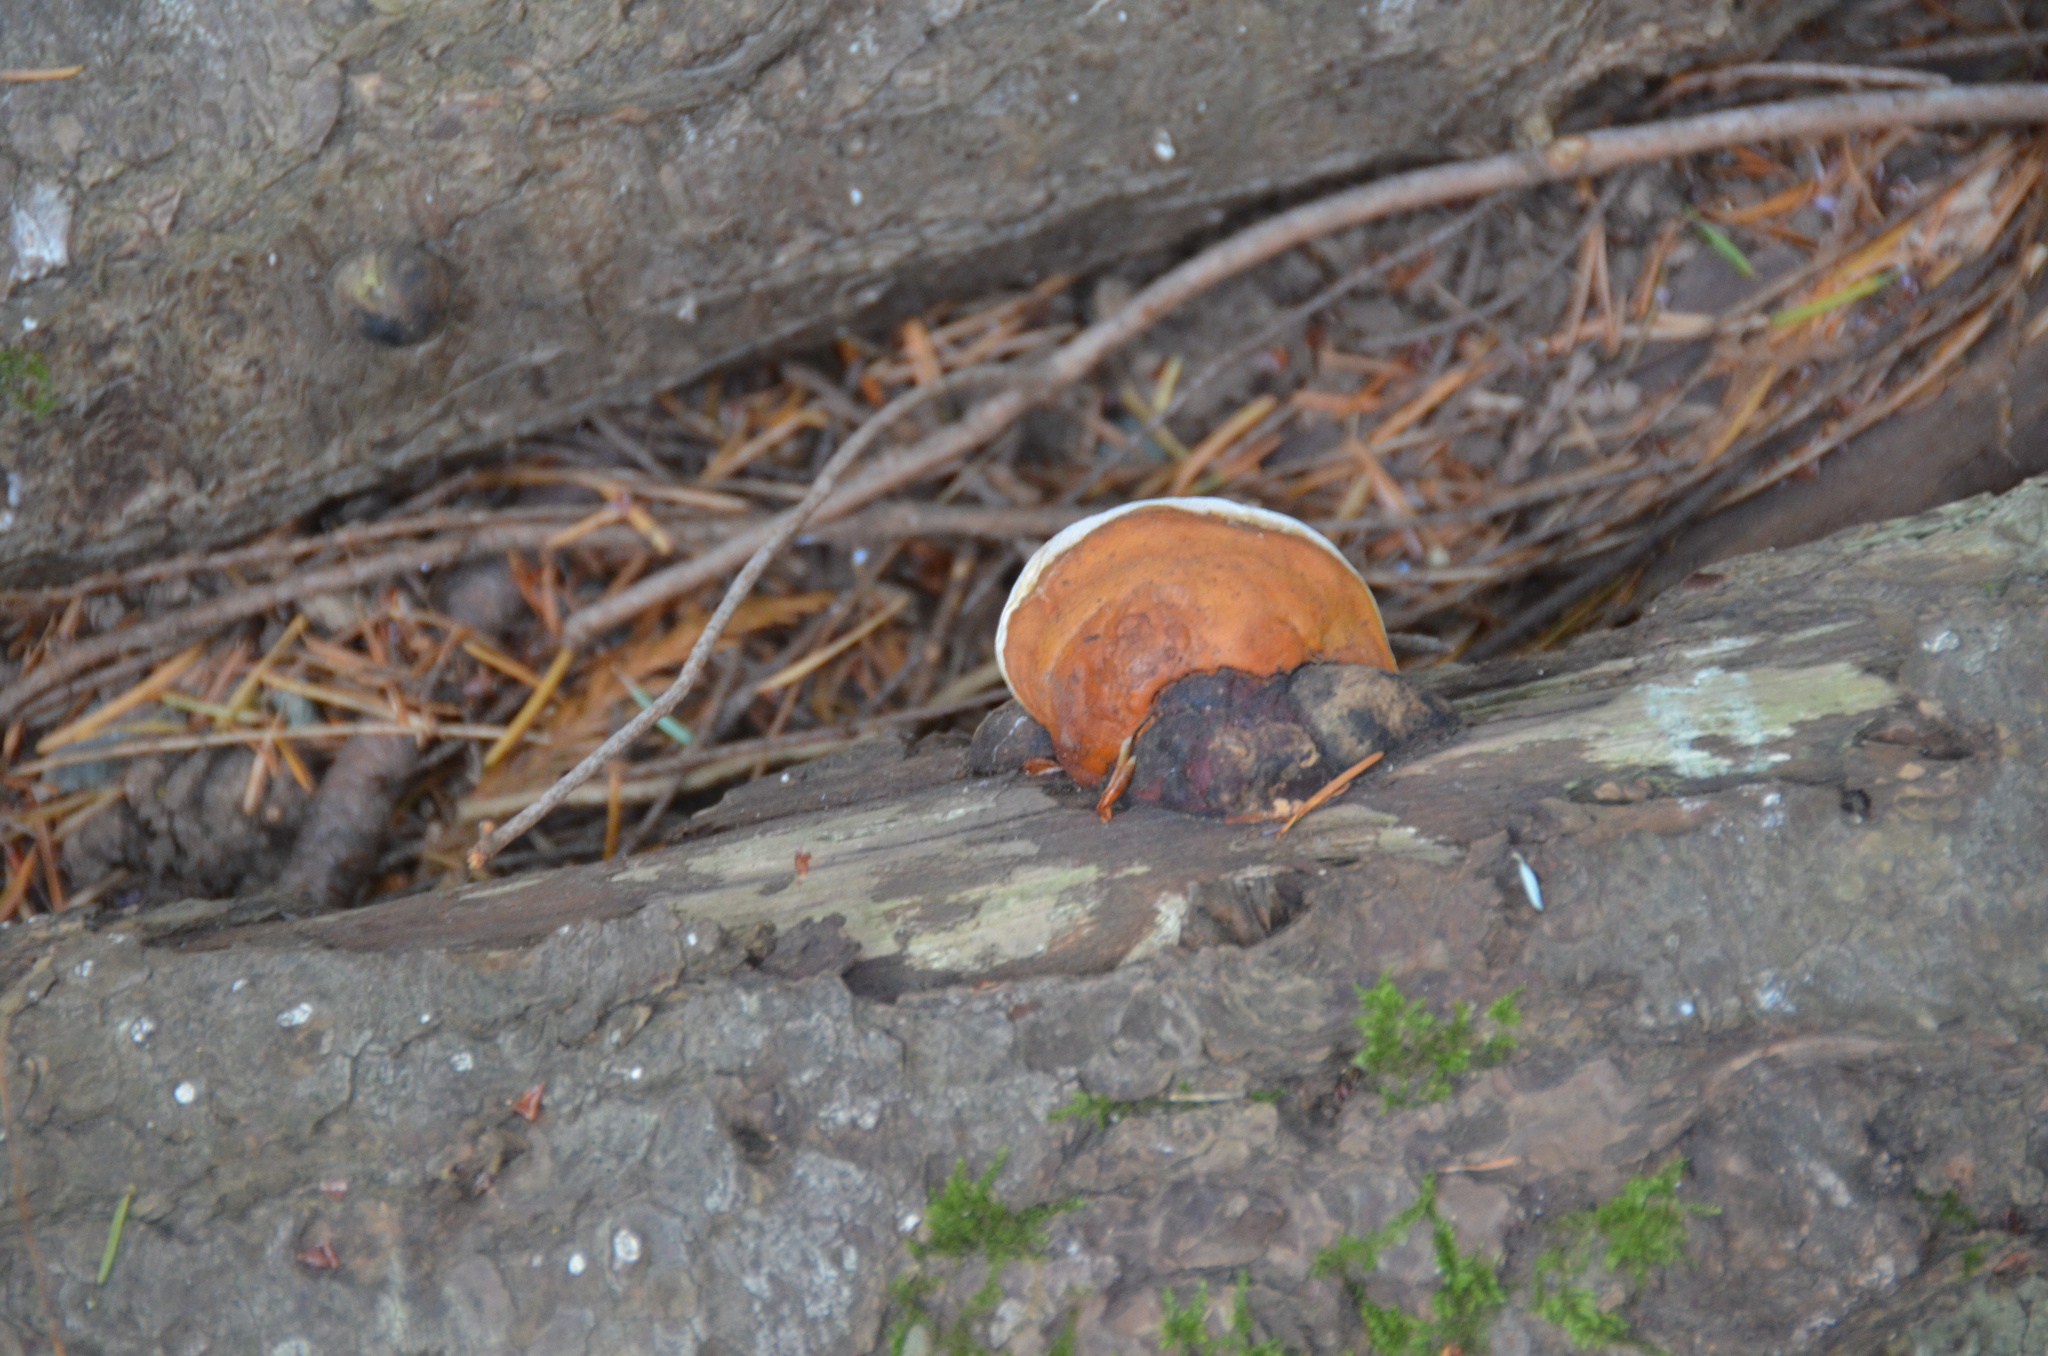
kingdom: Fungi
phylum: Basidiomycota
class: Agaricomycetes
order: Polyporales
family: Fomitopsidaceae
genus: Fomitopsis
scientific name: Fomitopsis mounceae
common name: Northern red belt
